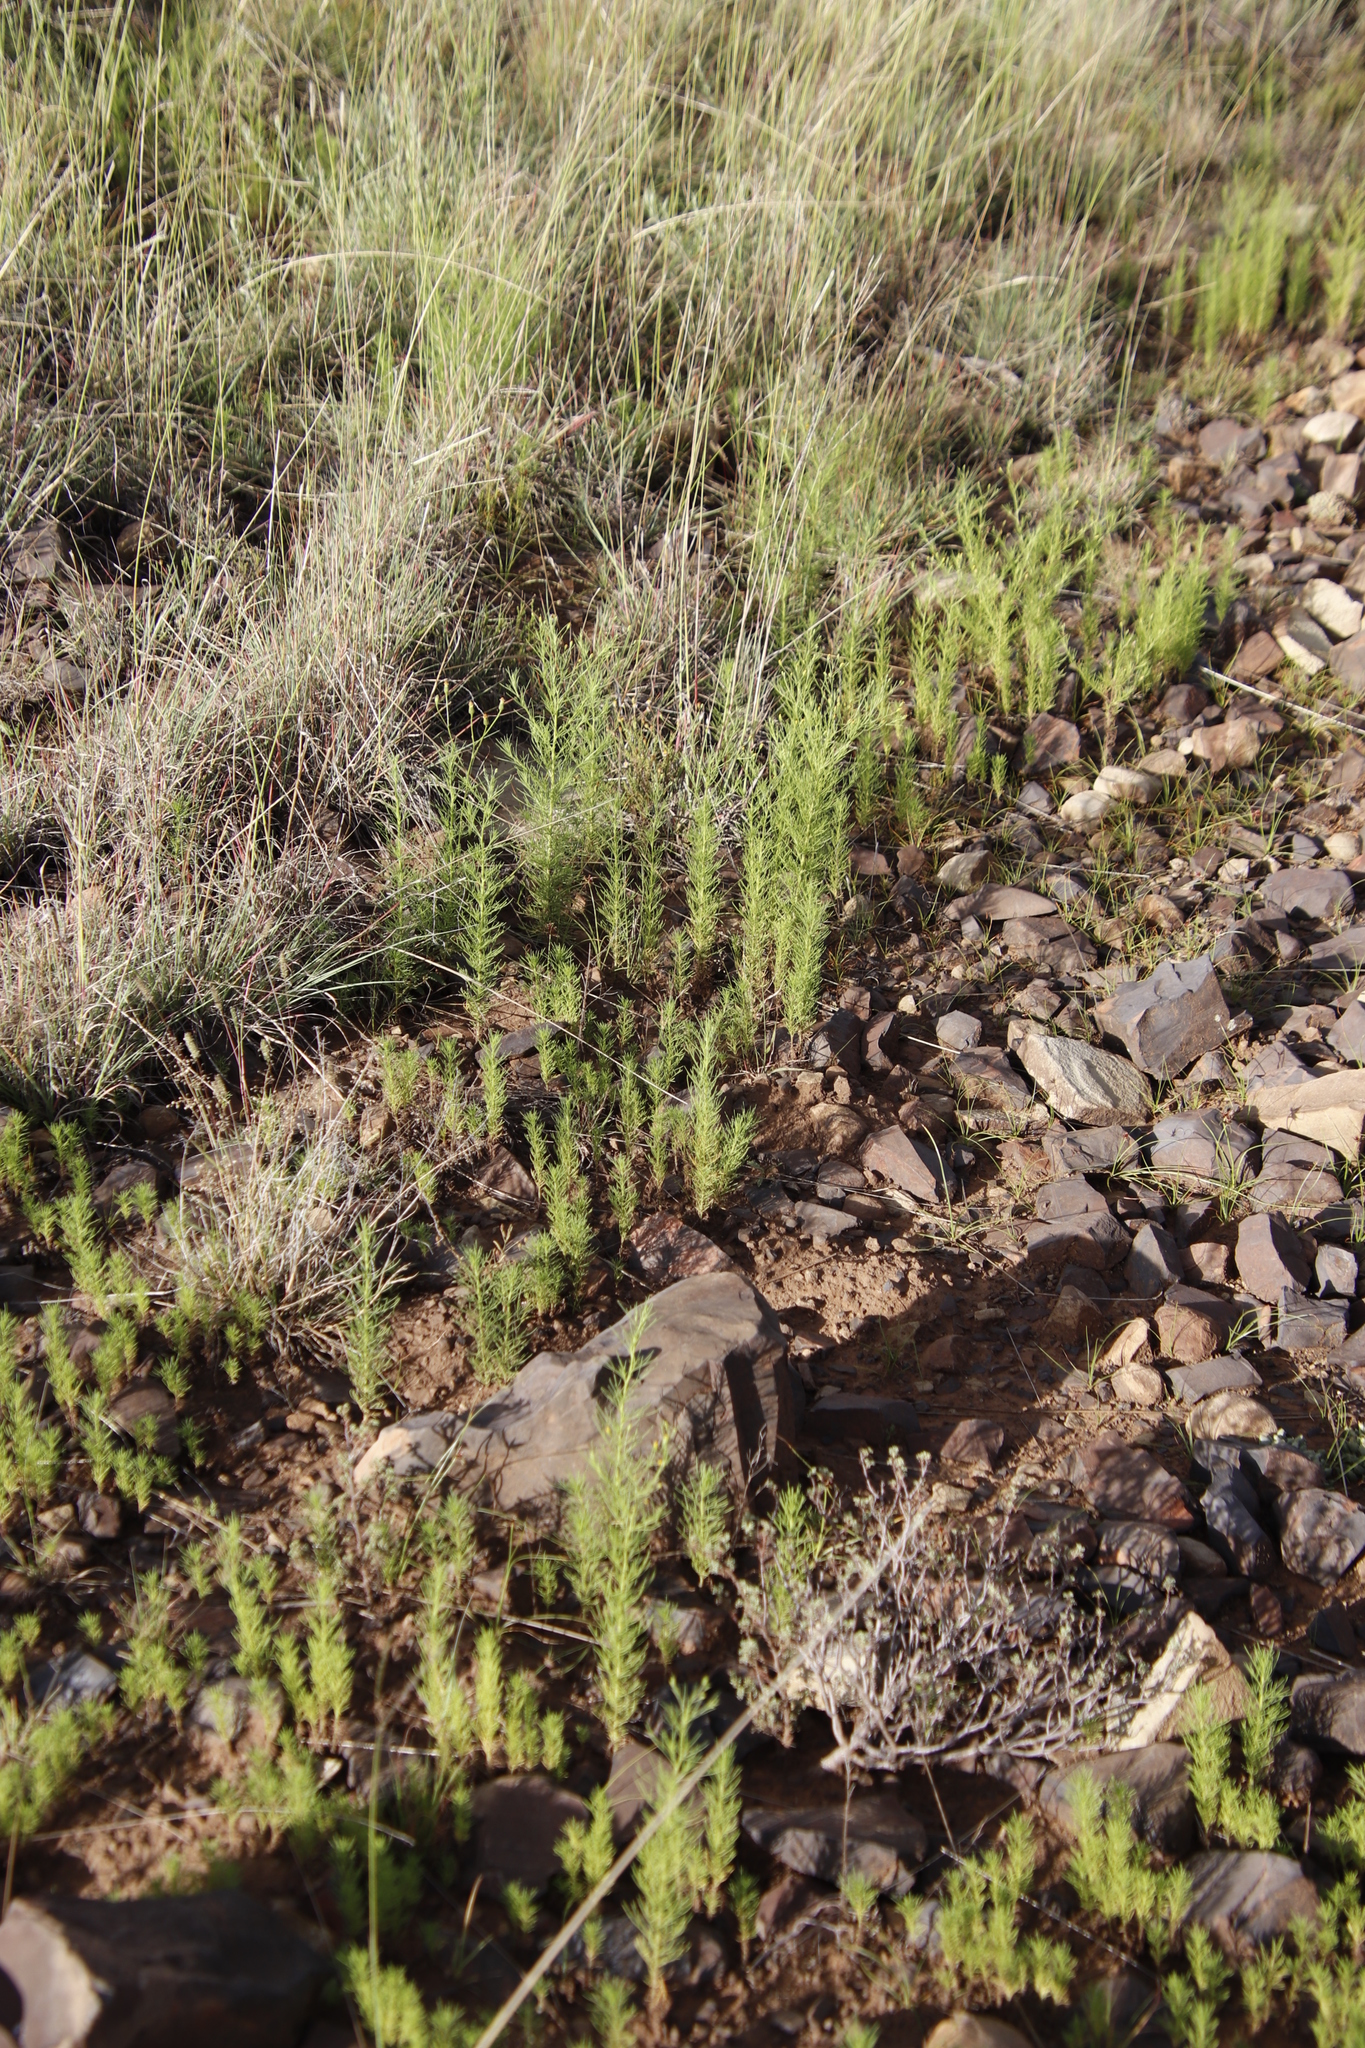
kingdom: Plantae
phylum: Tracheophyta
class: Magnoliopsida
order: Asterales
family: Asteraceae
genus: Schkuhria
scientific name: Schkuhria pinnata
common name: Dwarf marigold
